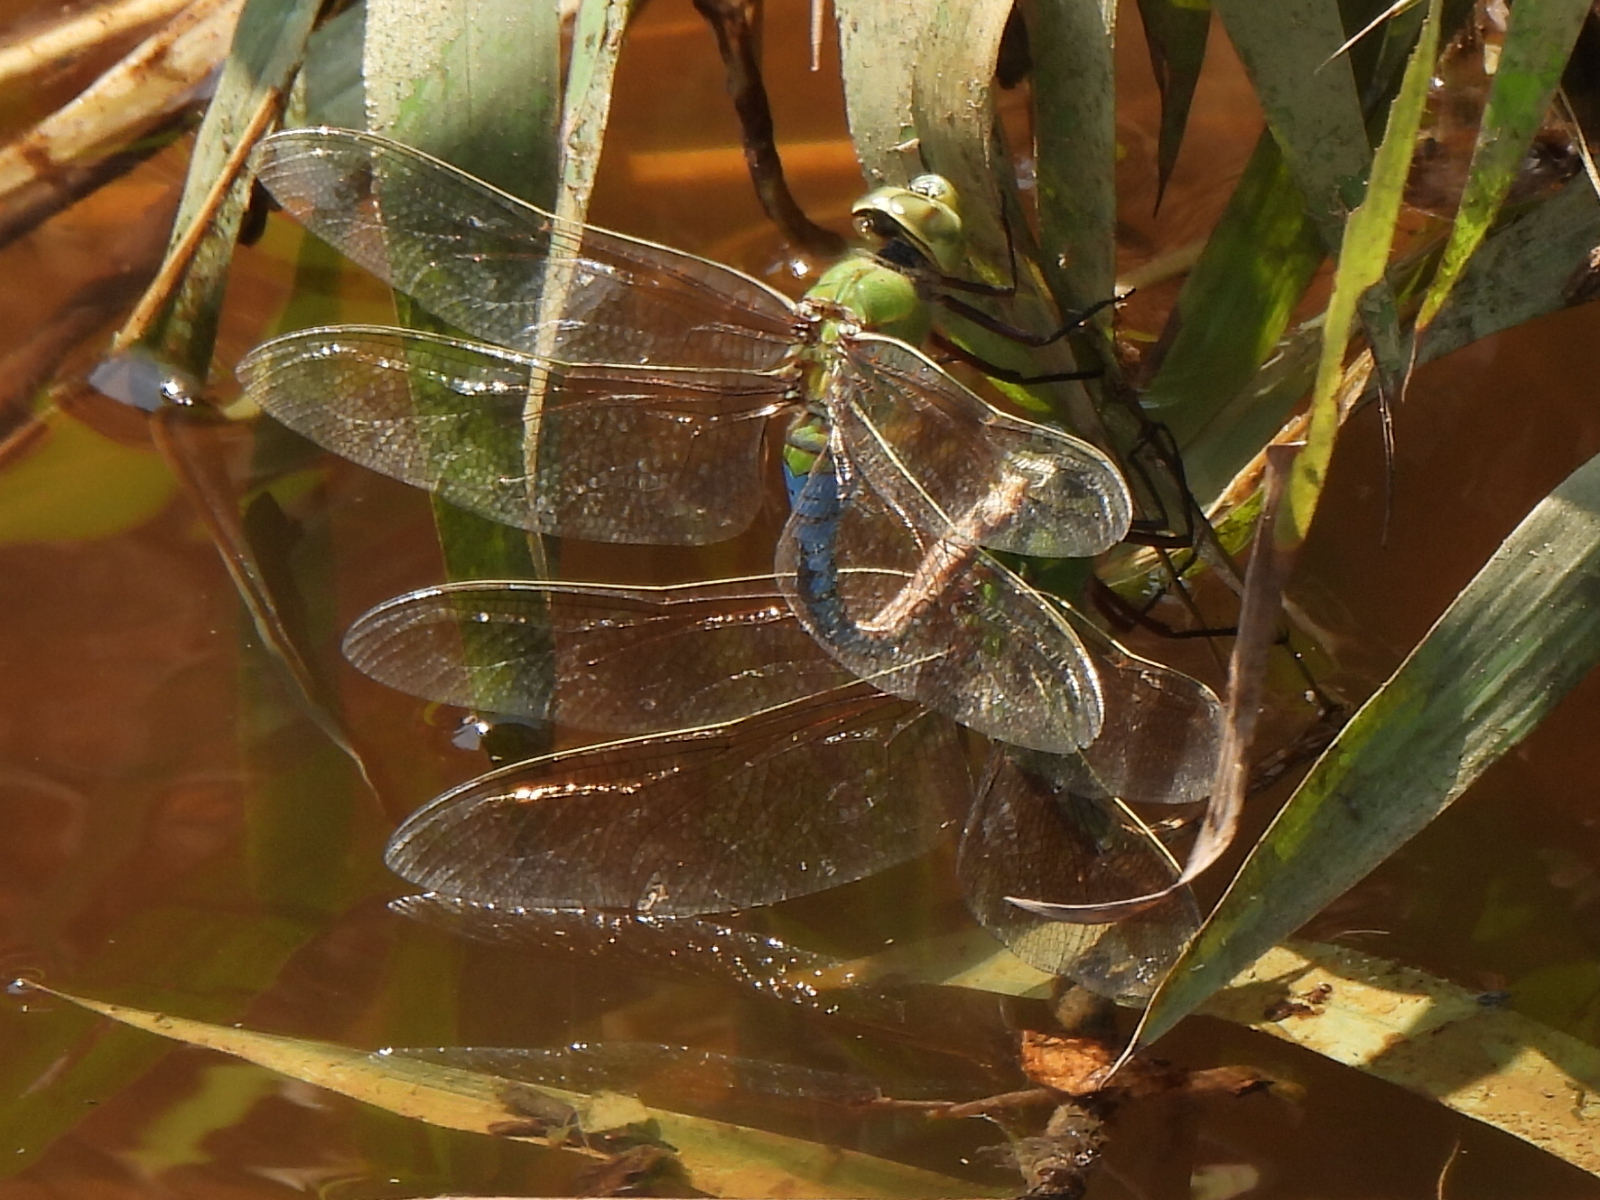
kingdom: Animalia
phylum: Arthropoda
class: Insecta
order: Odonata
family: Aeshnidae
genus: Anax
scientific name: Anax junius
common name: Common green darner
